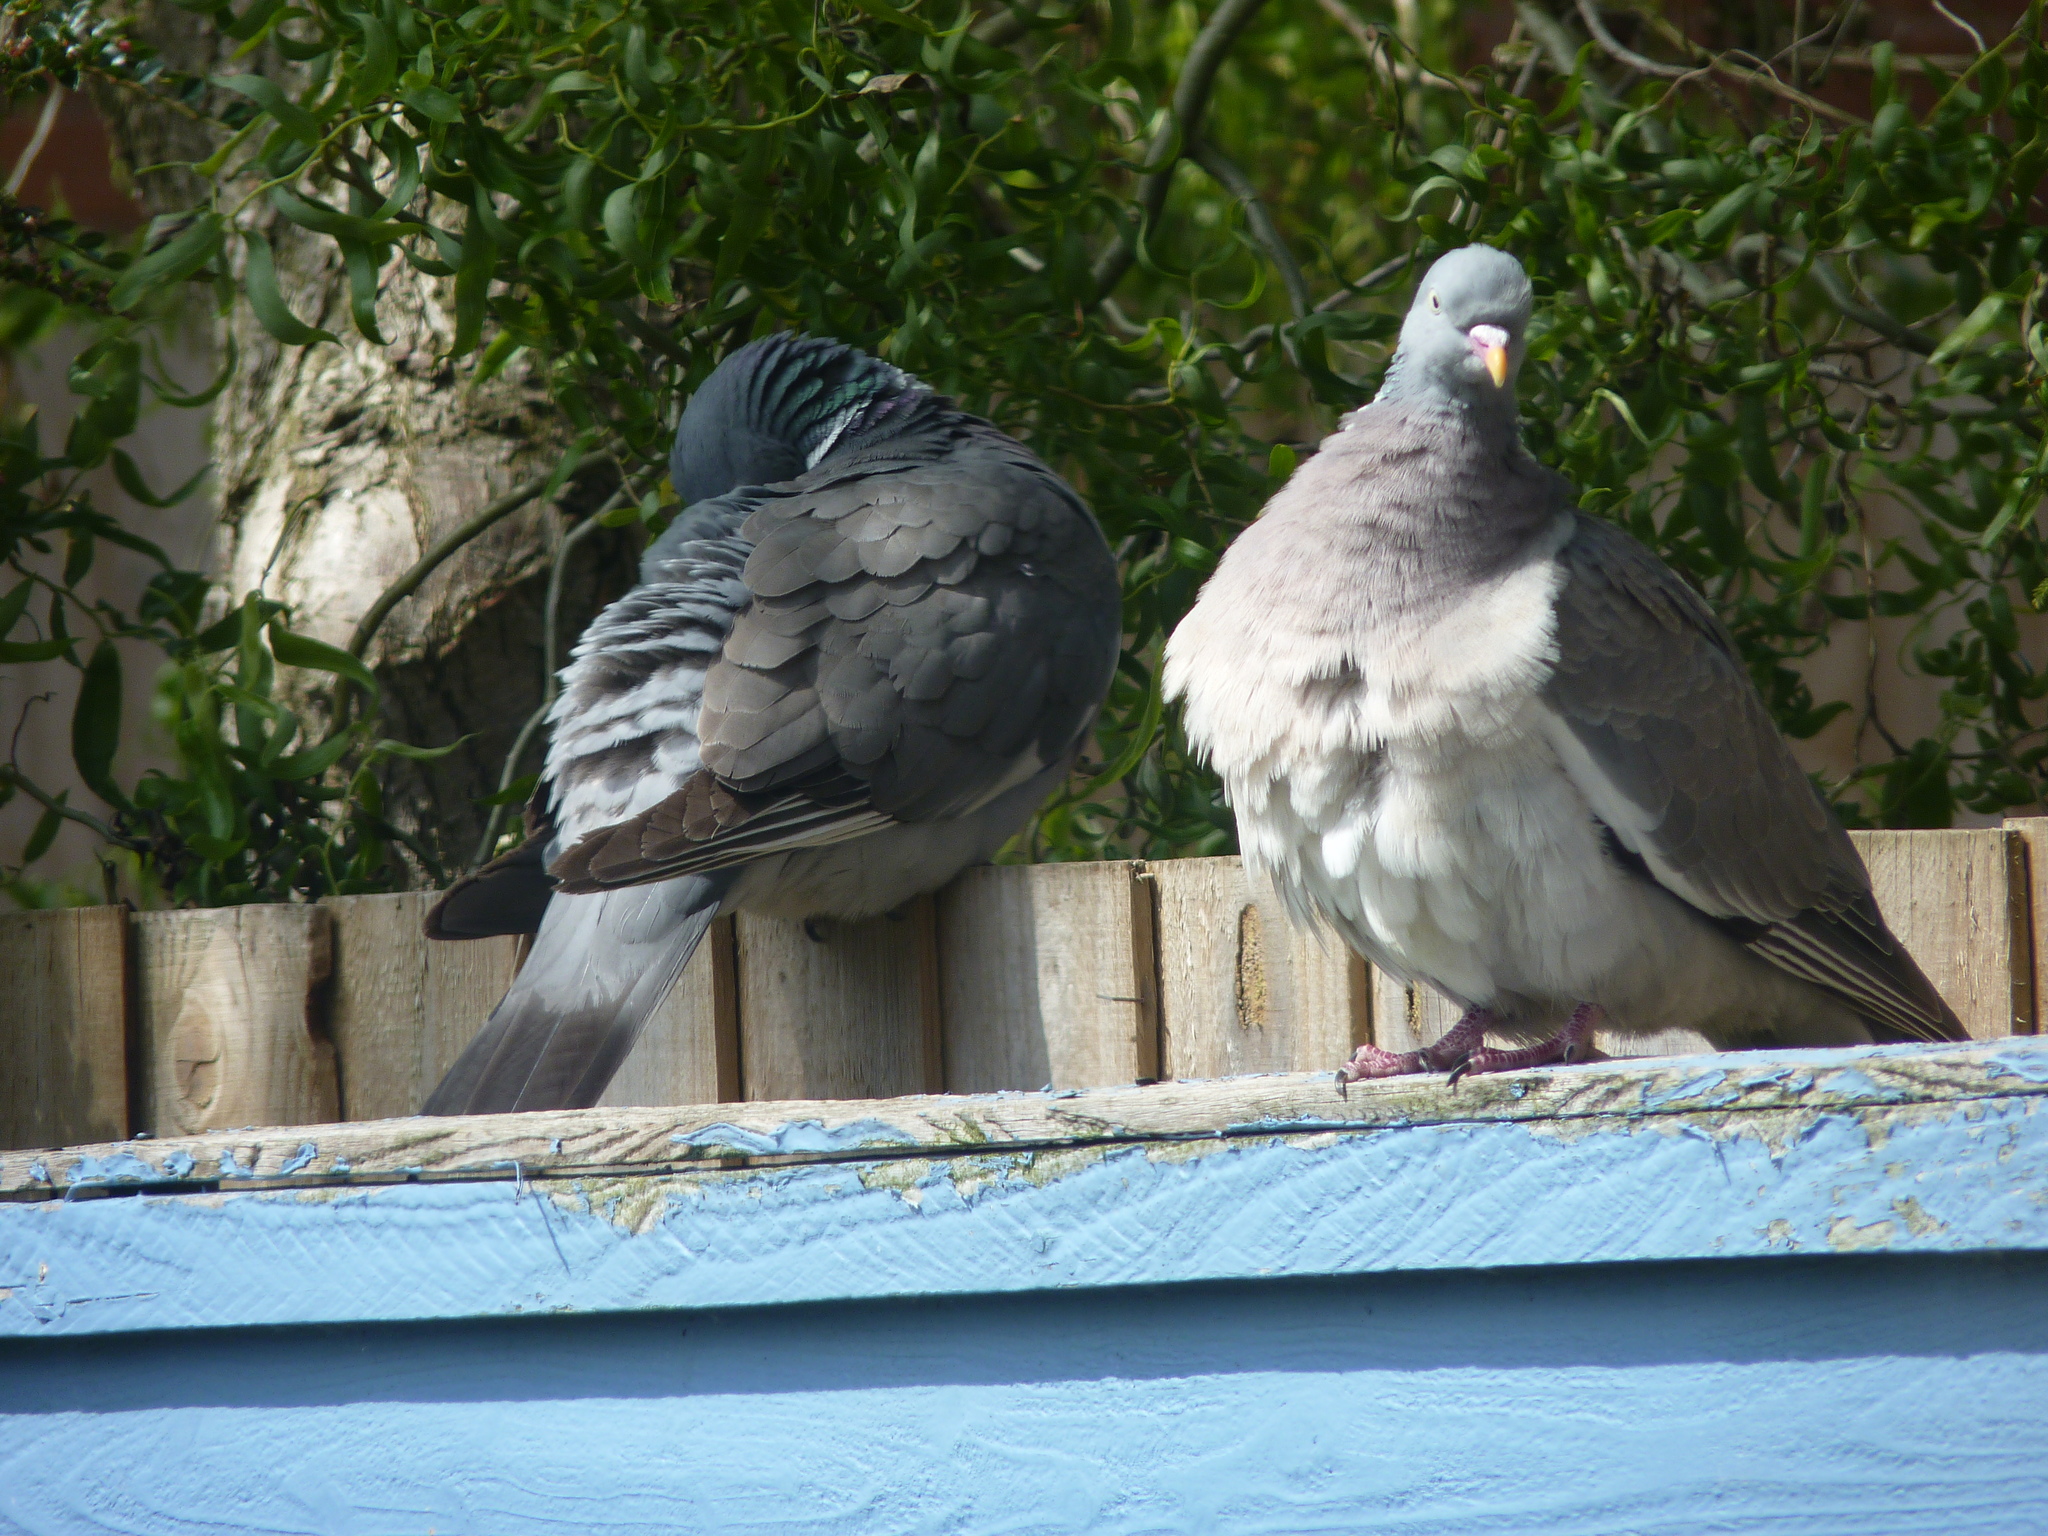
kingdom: Animalia
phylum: Chordata
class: Aves
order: Columbiformes
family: Columbidae
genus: Columba
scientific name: Columba palumbus
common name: Common wood pigeon
